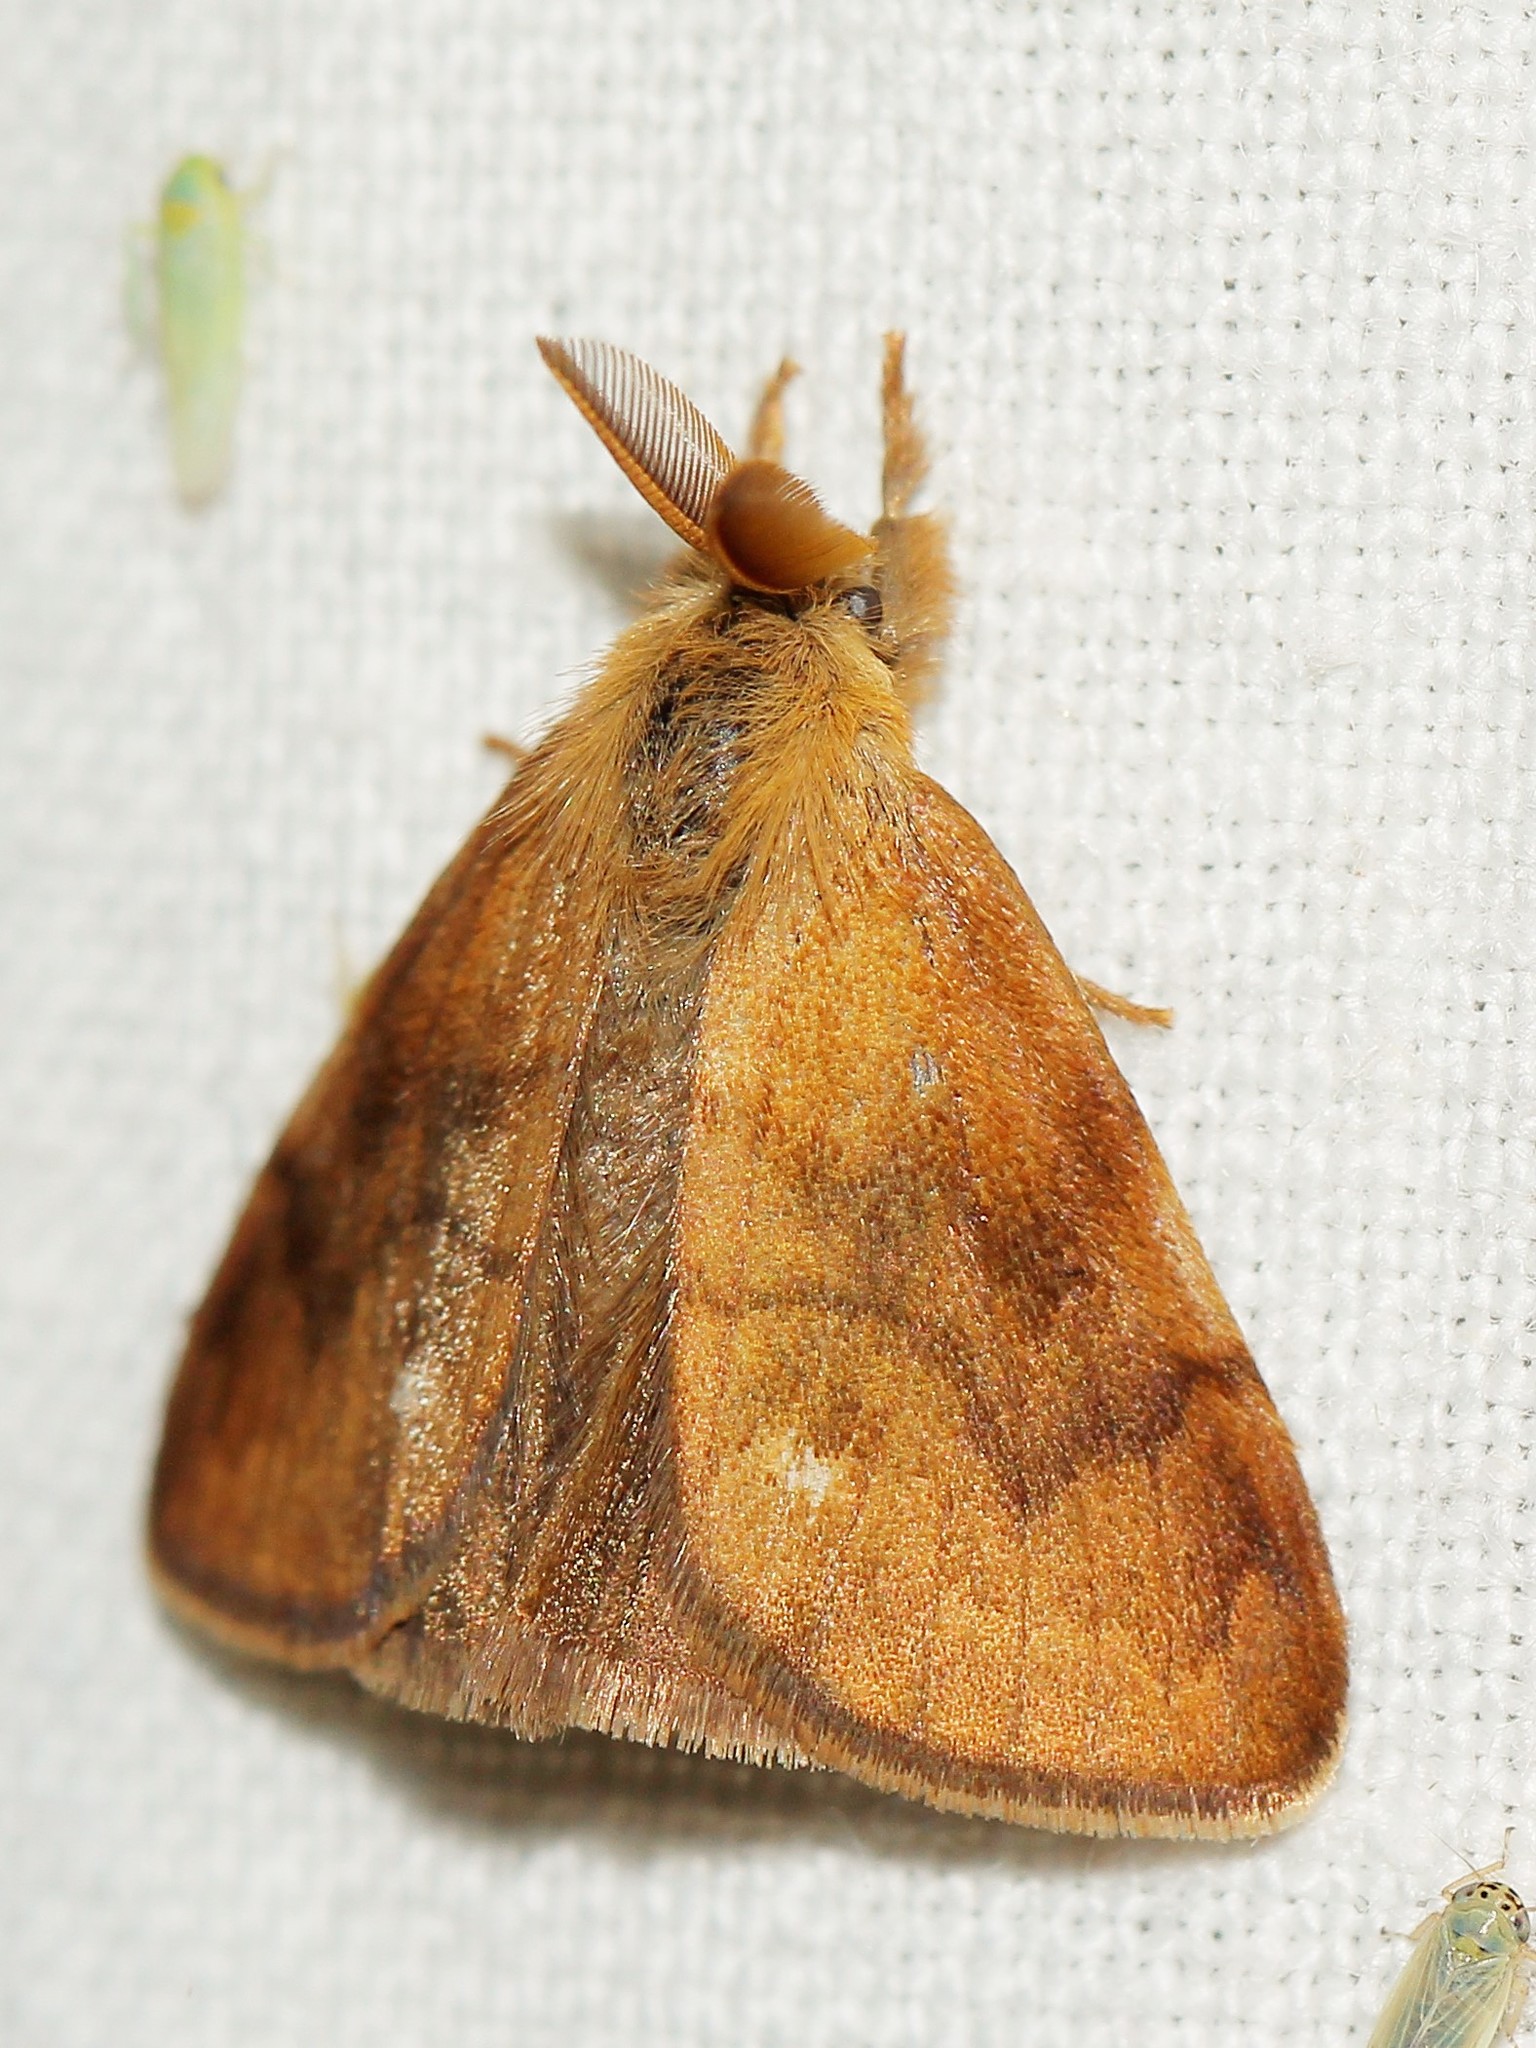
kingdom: Animalia
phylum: Arthropoda
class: Insecta
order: Lepidoptera
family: Erebidae
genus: Orgyia
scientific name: Orgyia antiquoides
